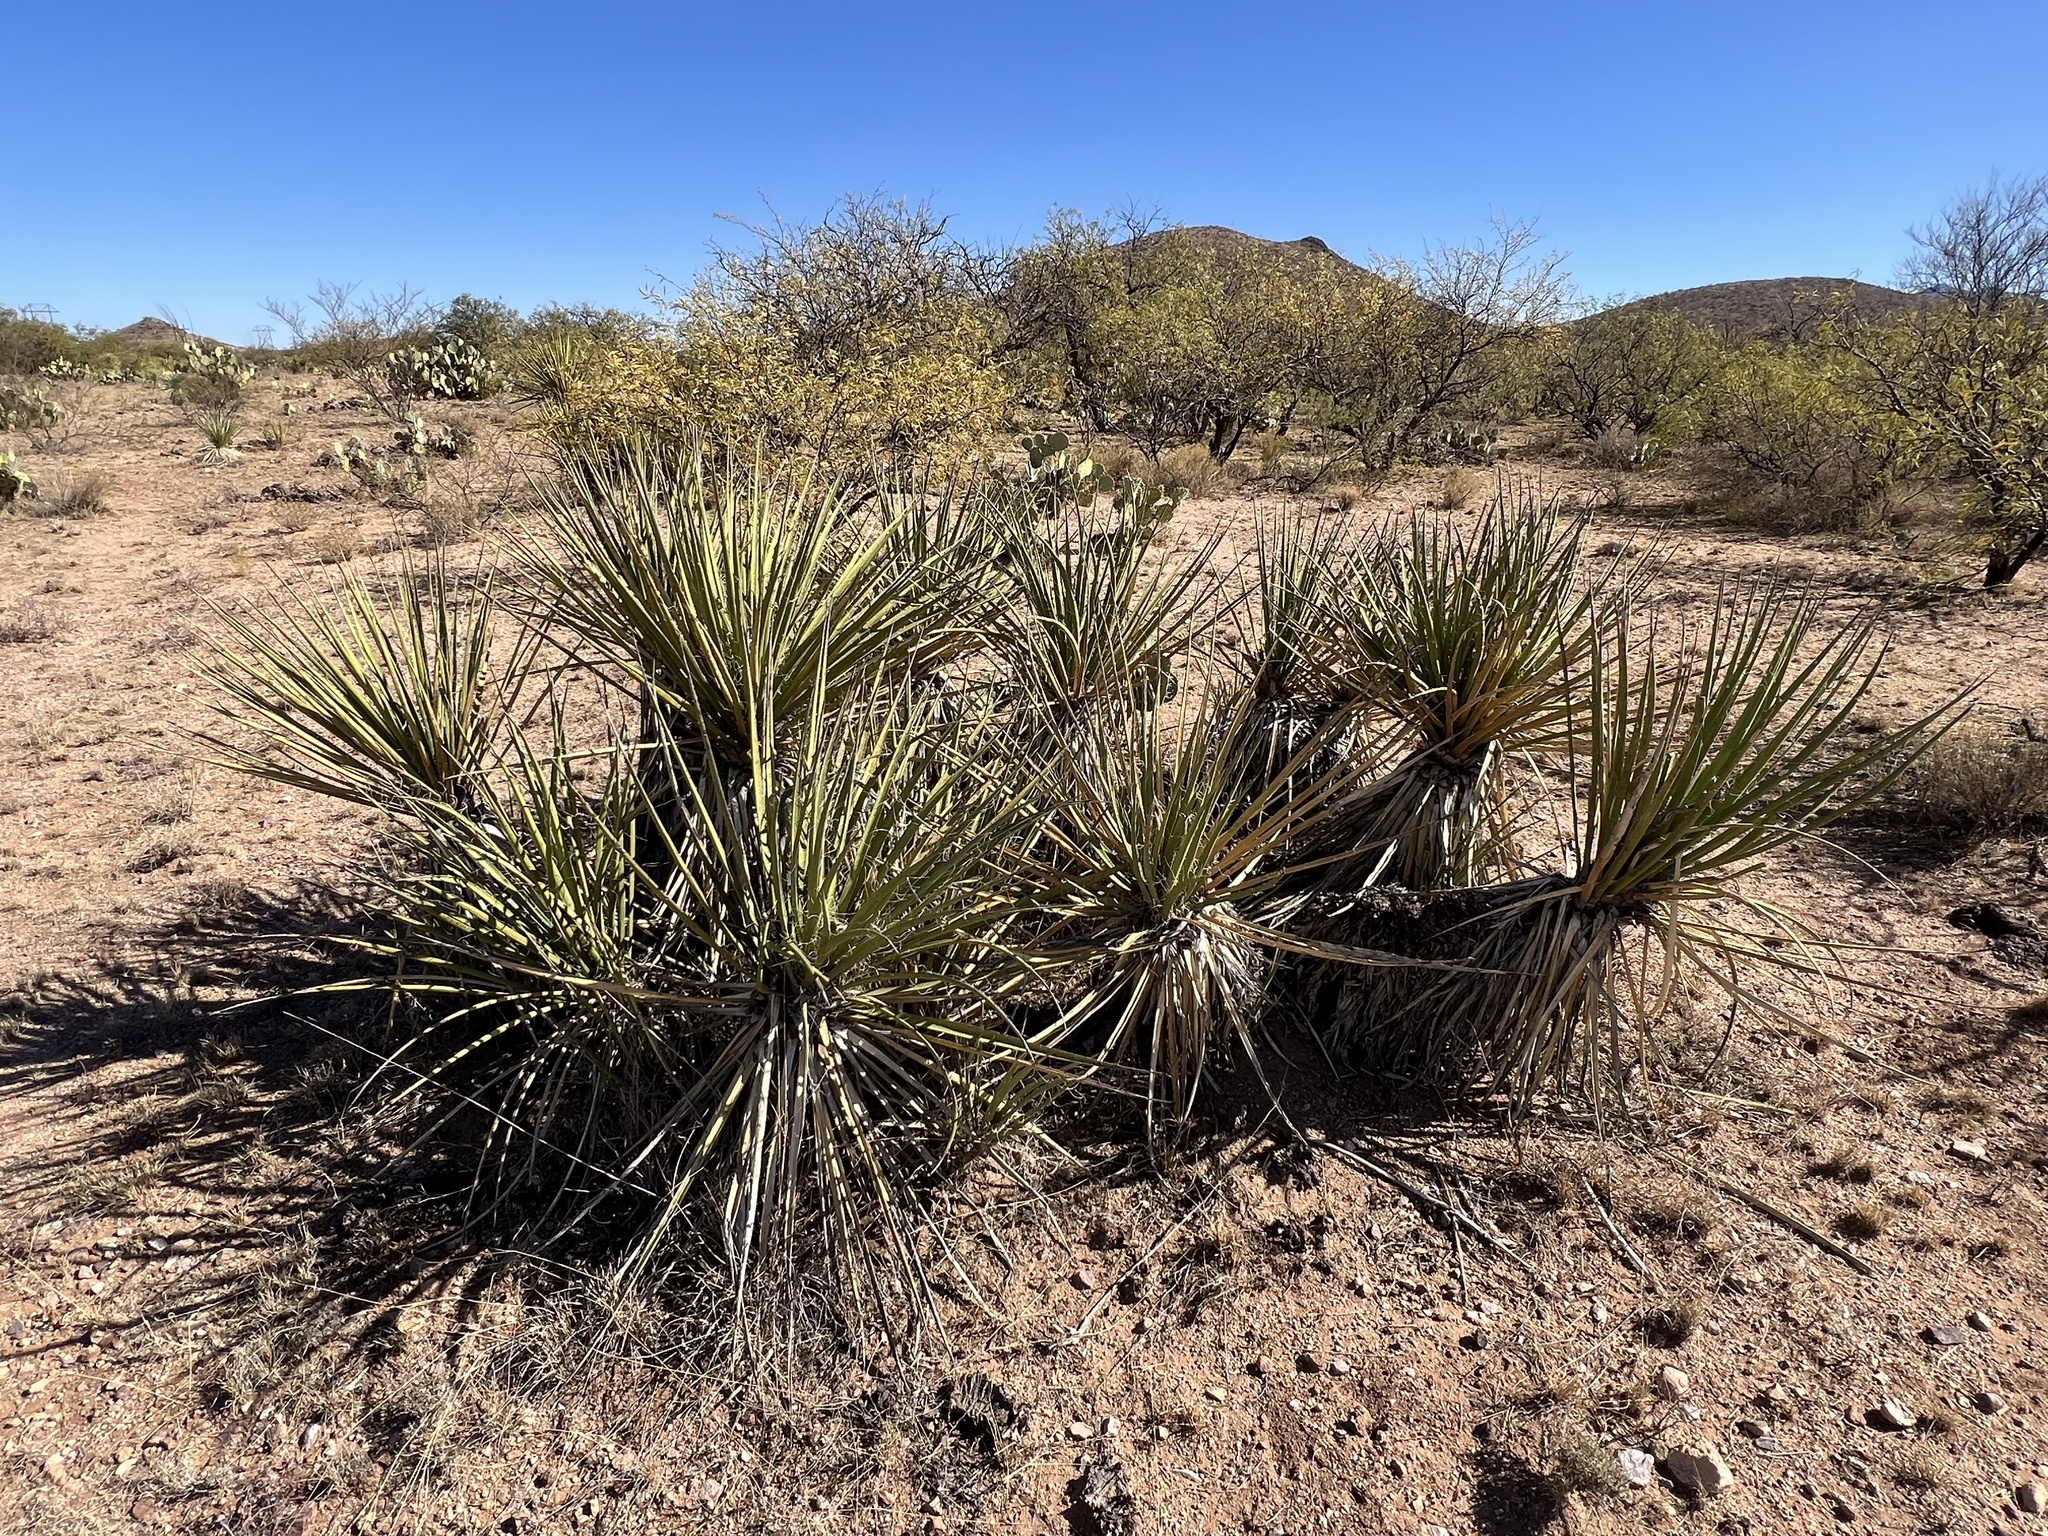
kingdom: Plantae
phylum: Tracheophyta
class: Liliopsida
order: Asparagales
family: Asparagaceae
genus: Yucca
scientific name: Yucca baccata
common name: Banana yucca
